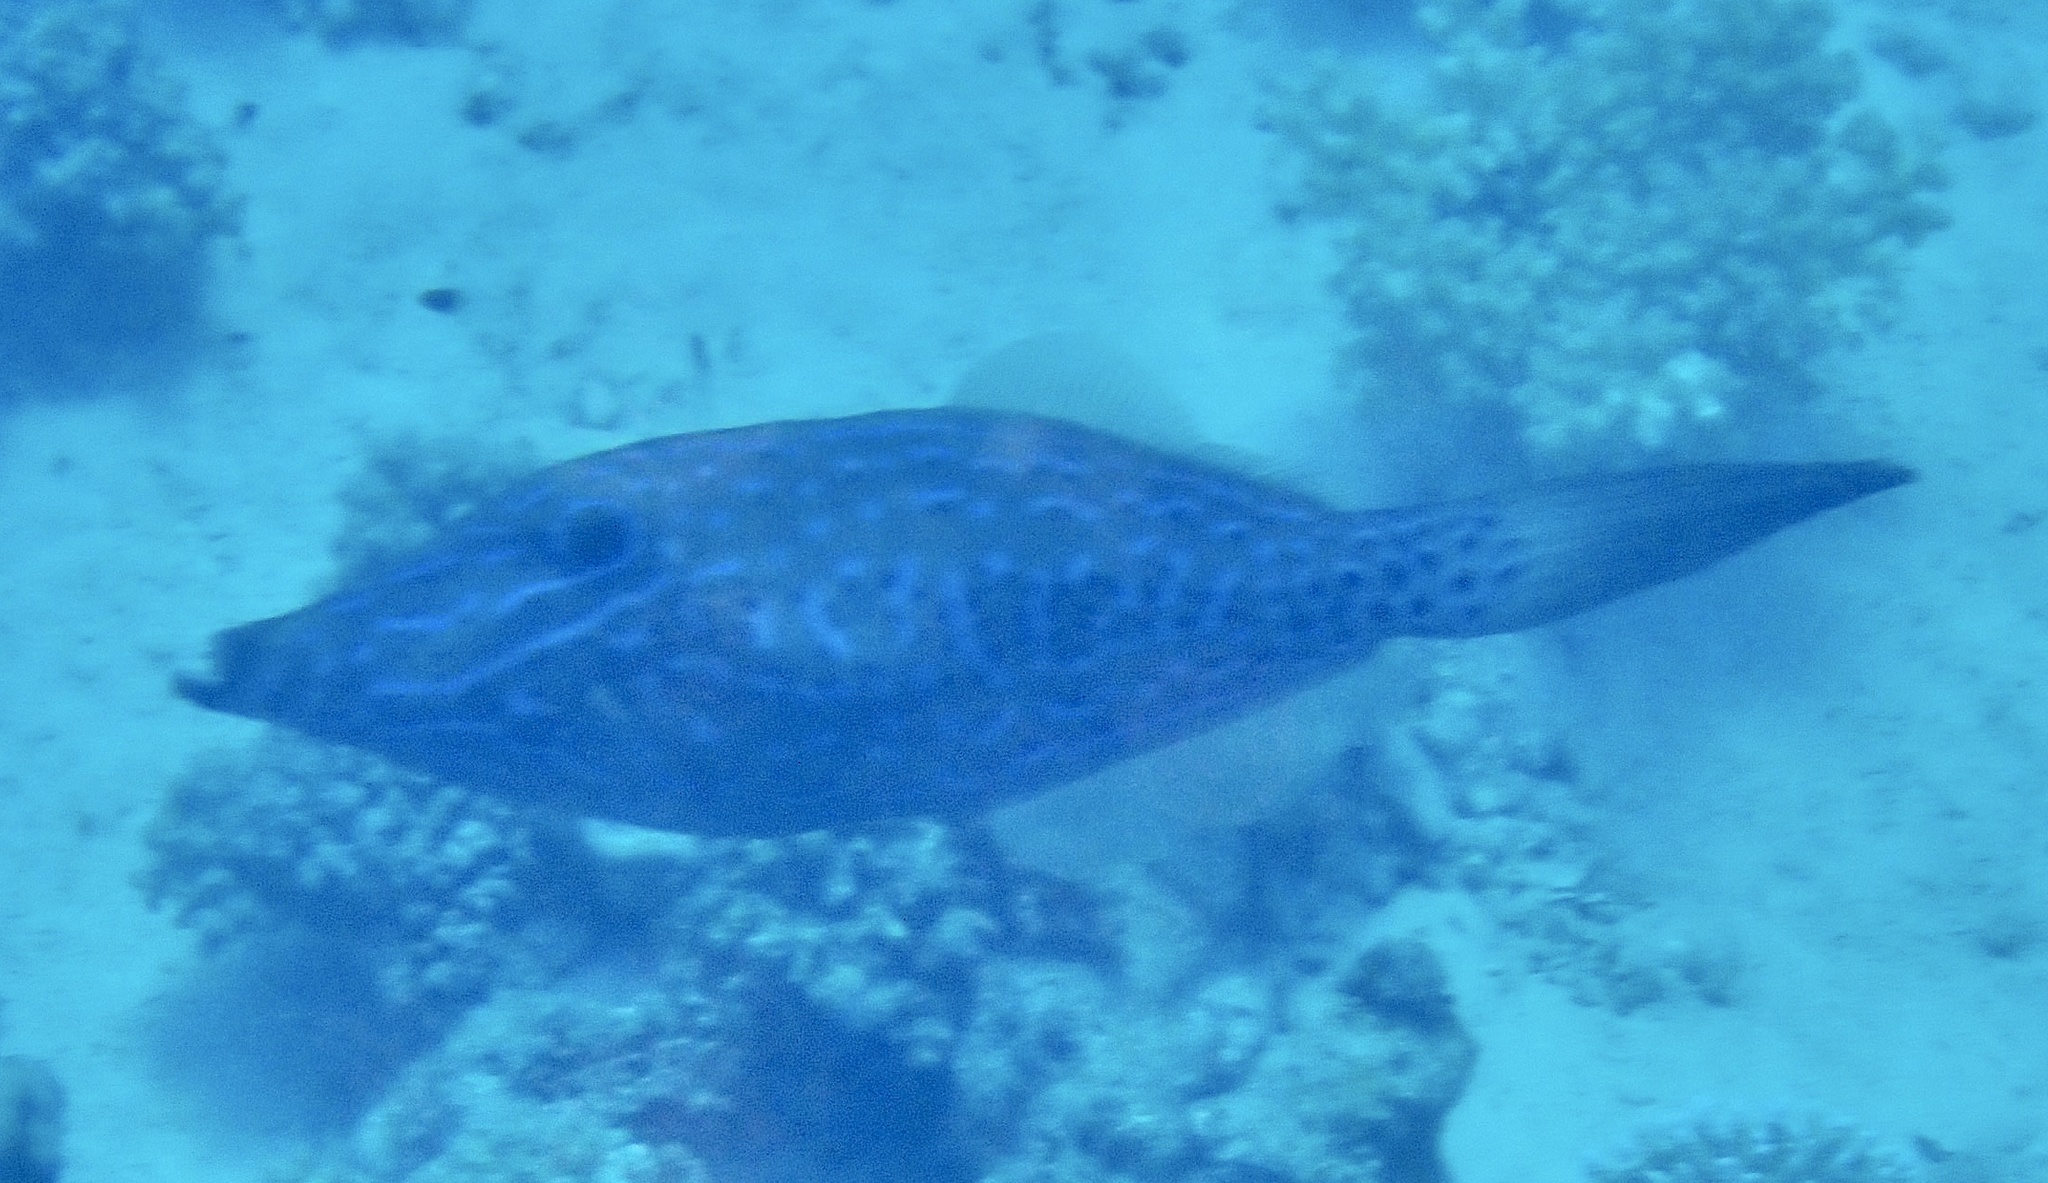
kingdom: Animalia
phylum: Chordata
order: Tetraodontiformes
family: Monacanthidae
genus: Aluterus
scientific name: Aluterus scriptus
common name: Scribbled leatherjacket filefish
